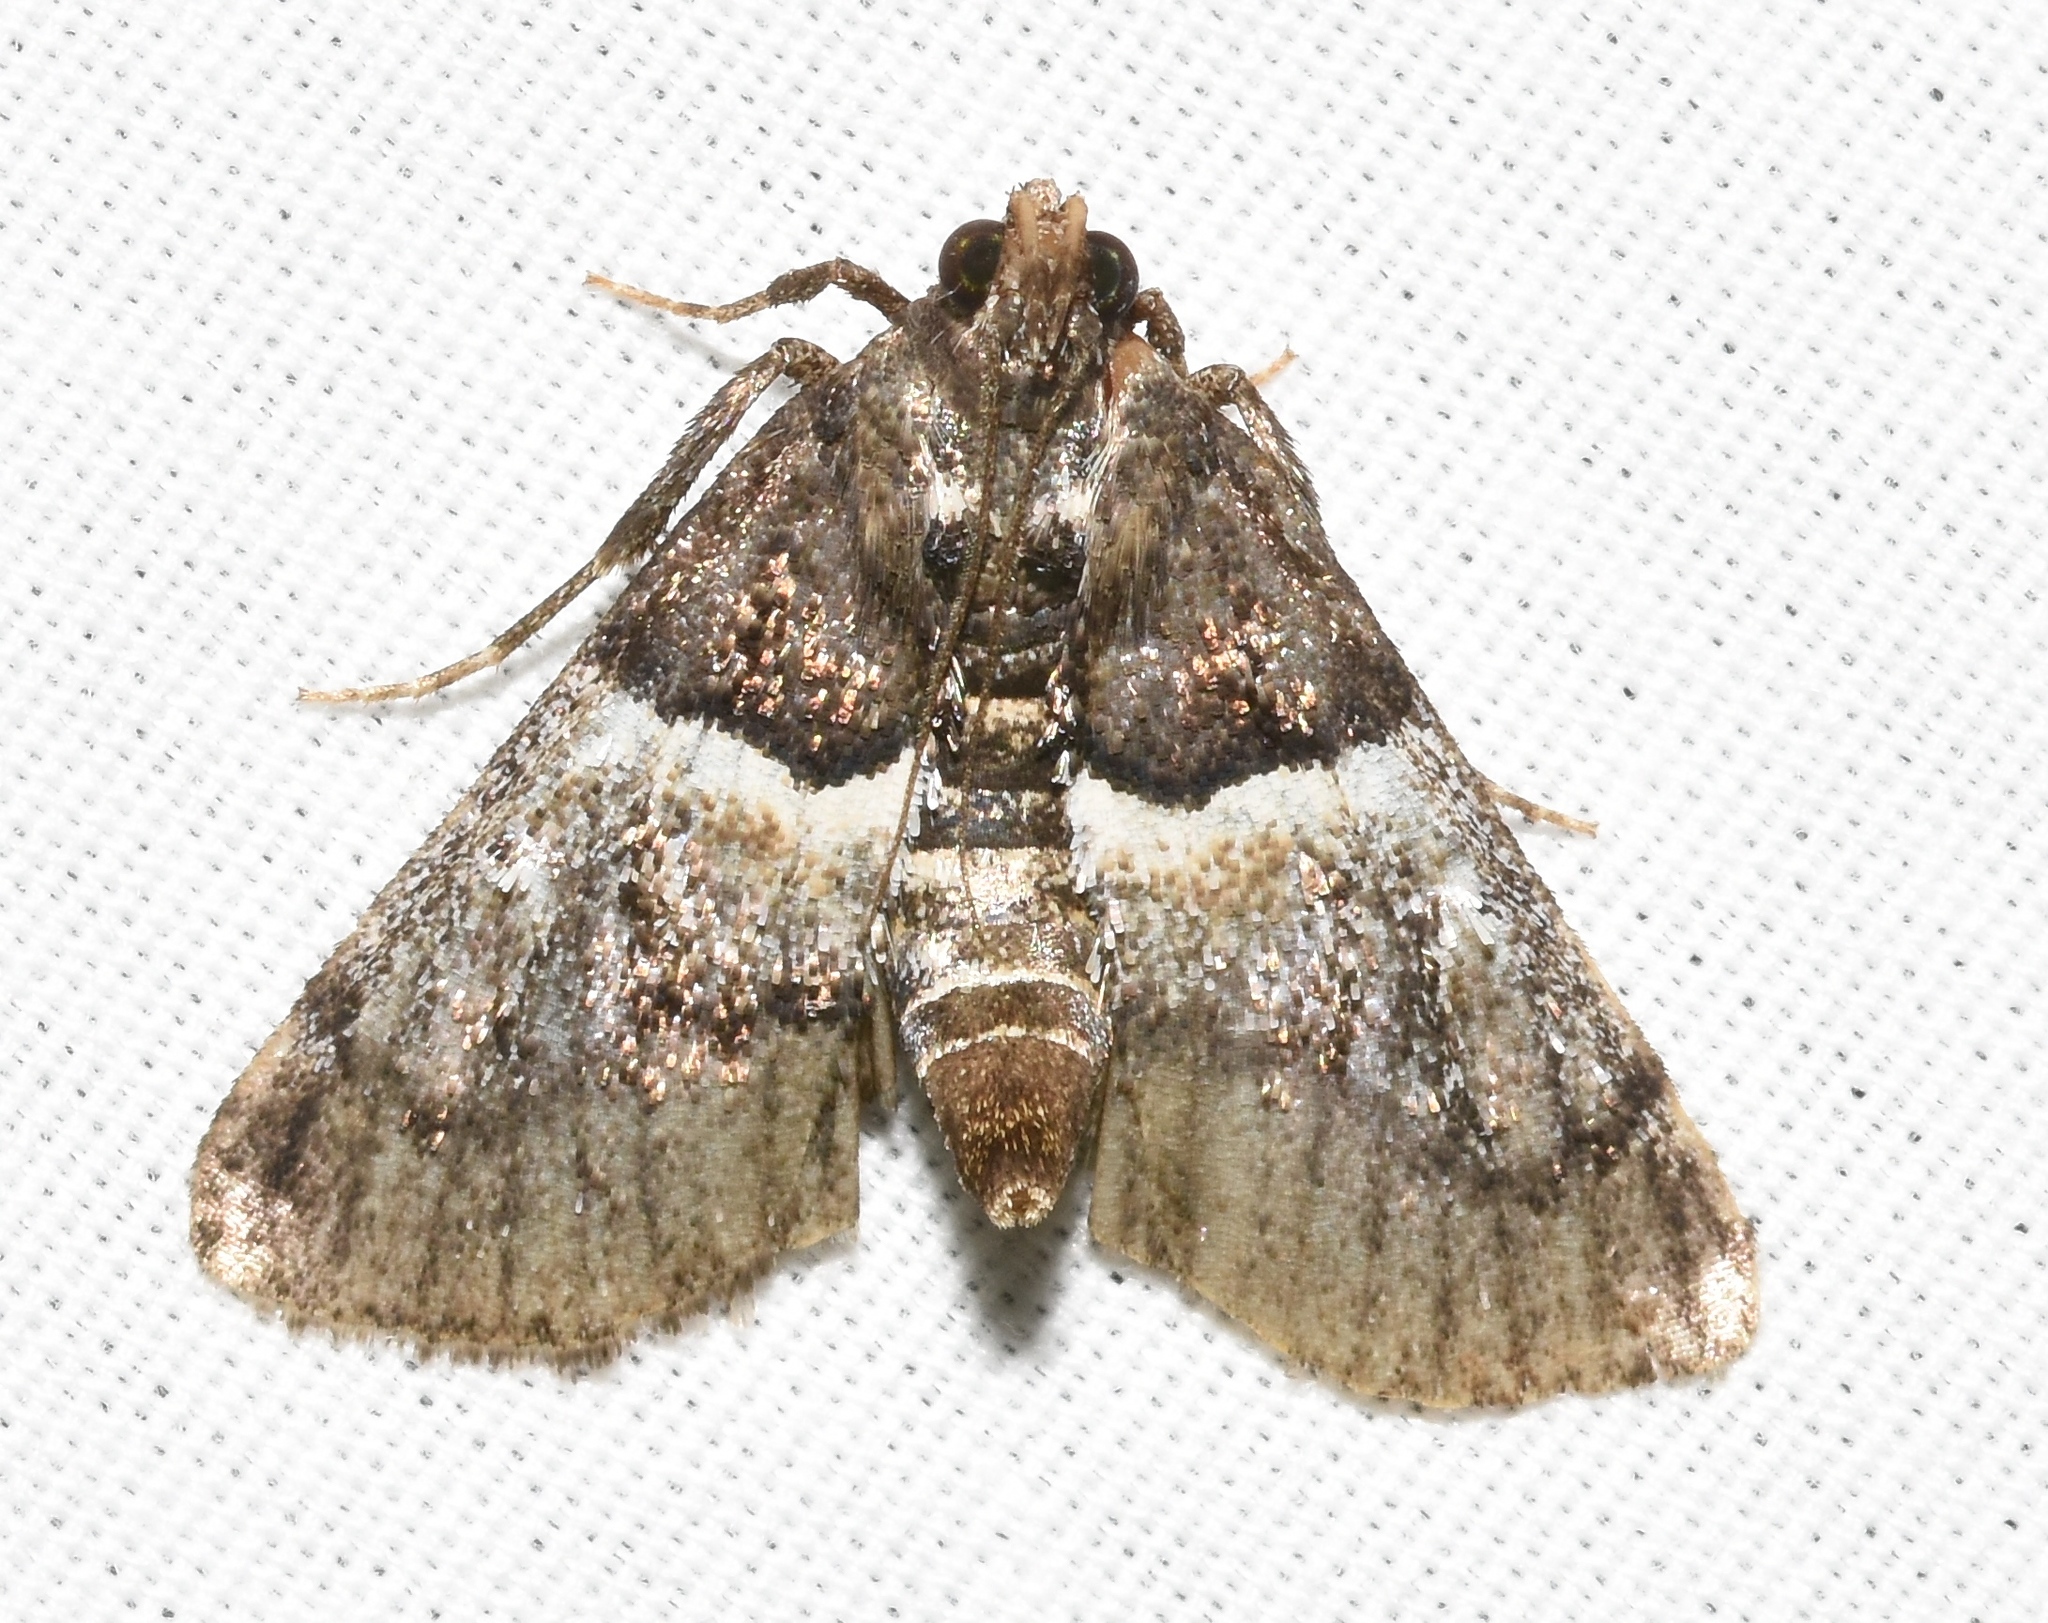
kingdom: Animalia
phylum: Arthropoda
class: Insecta
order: Lepidoptera
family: Pyralidae
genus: Macalla
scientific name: Macalla zelleri
